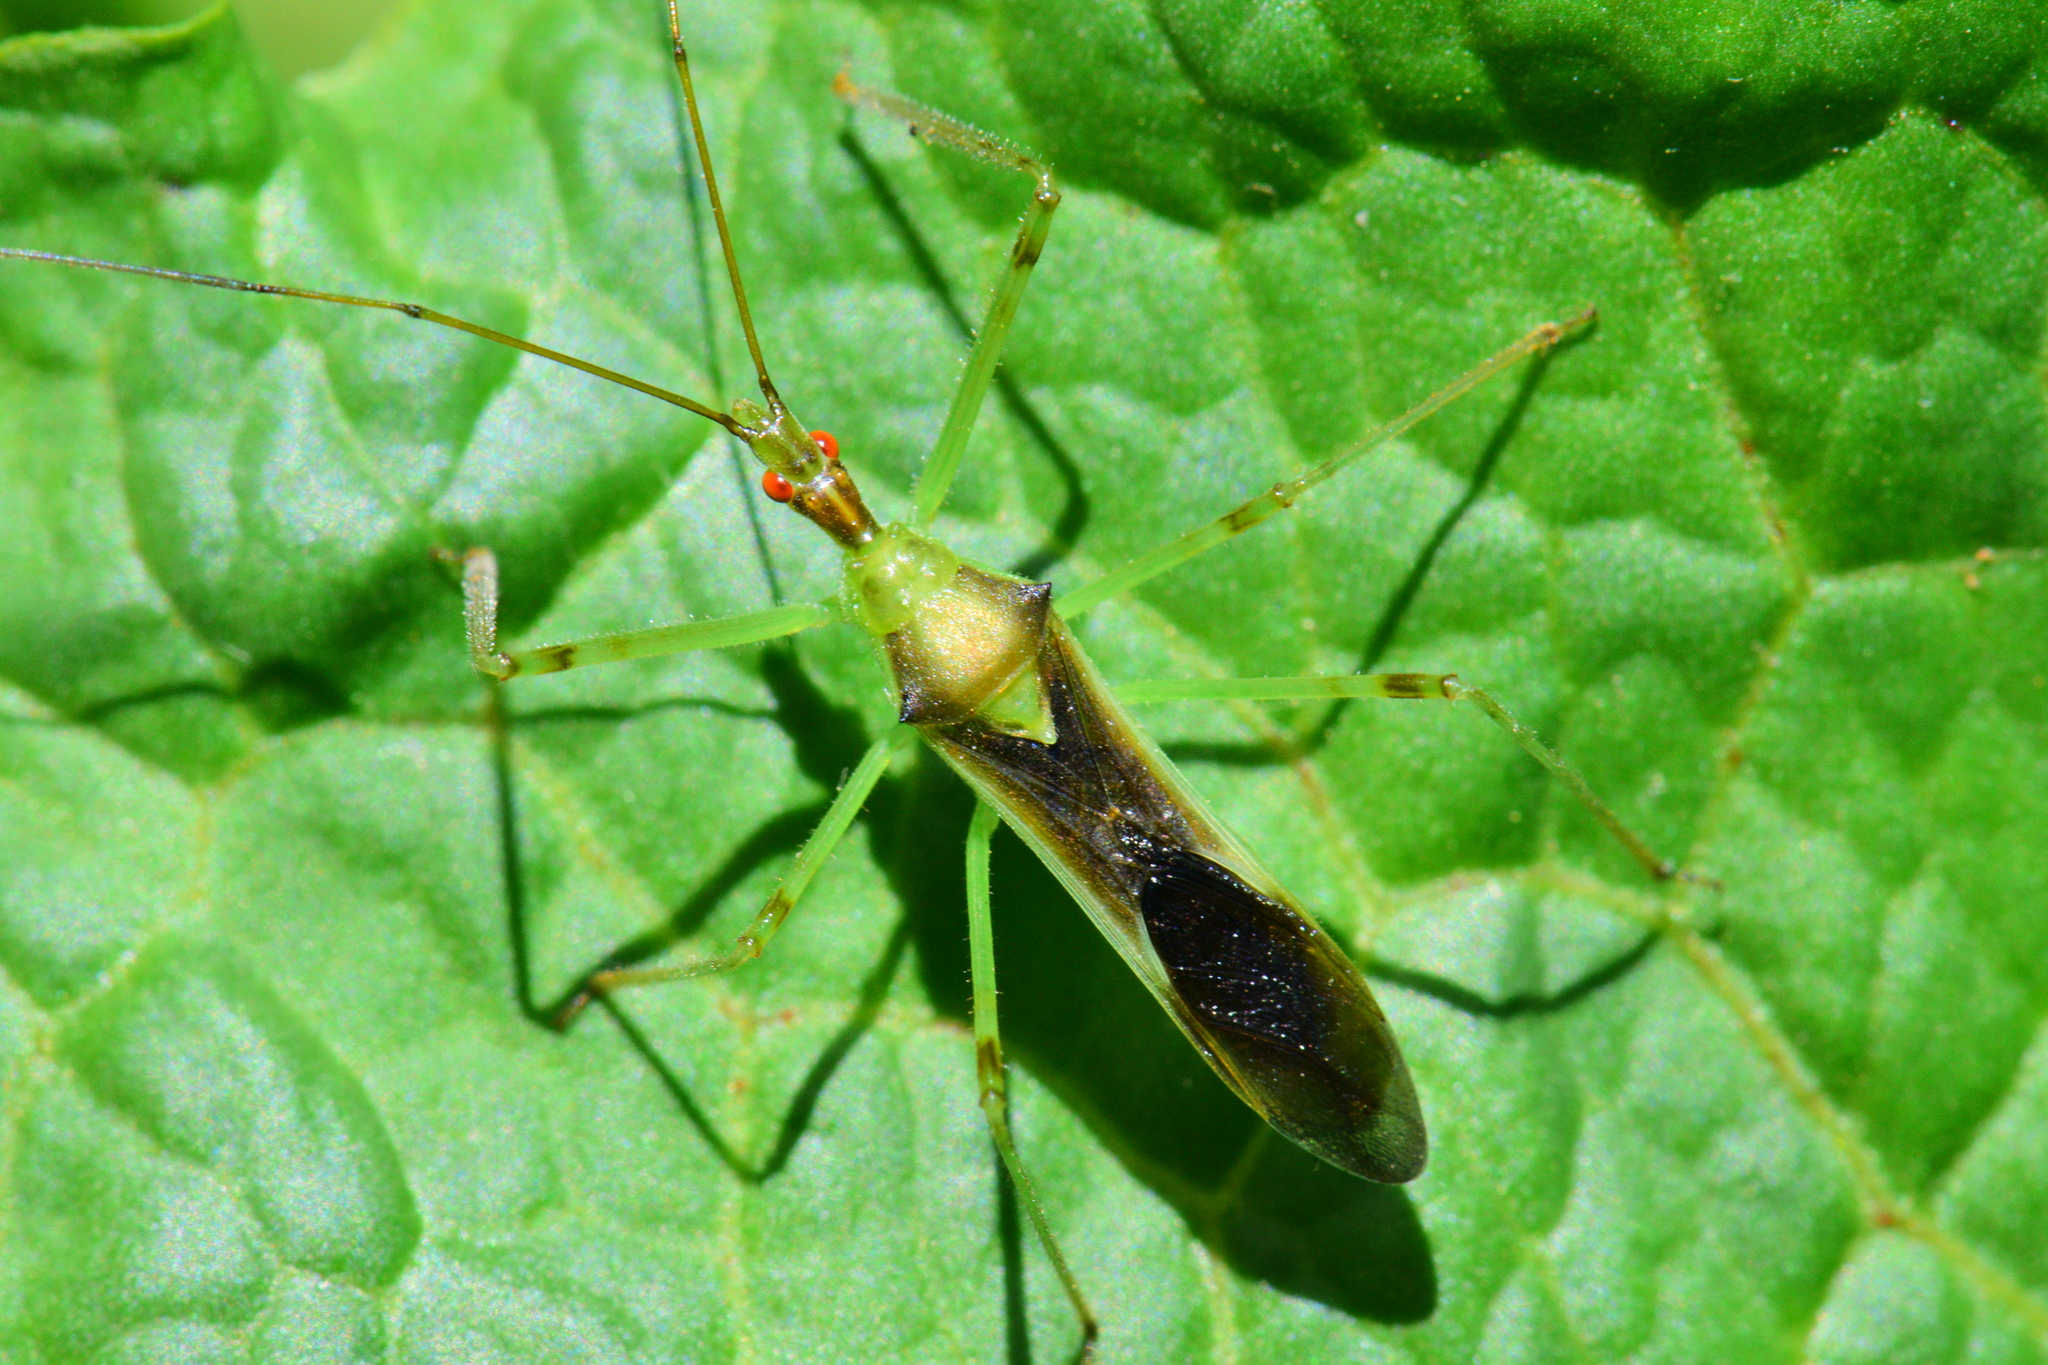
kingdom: Animalia
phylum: Arthropoda
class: Insecta
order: Hemiptera
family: Reduviidae
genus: Zelus
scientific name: Zelus luridus
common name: Pale green assassin bug
